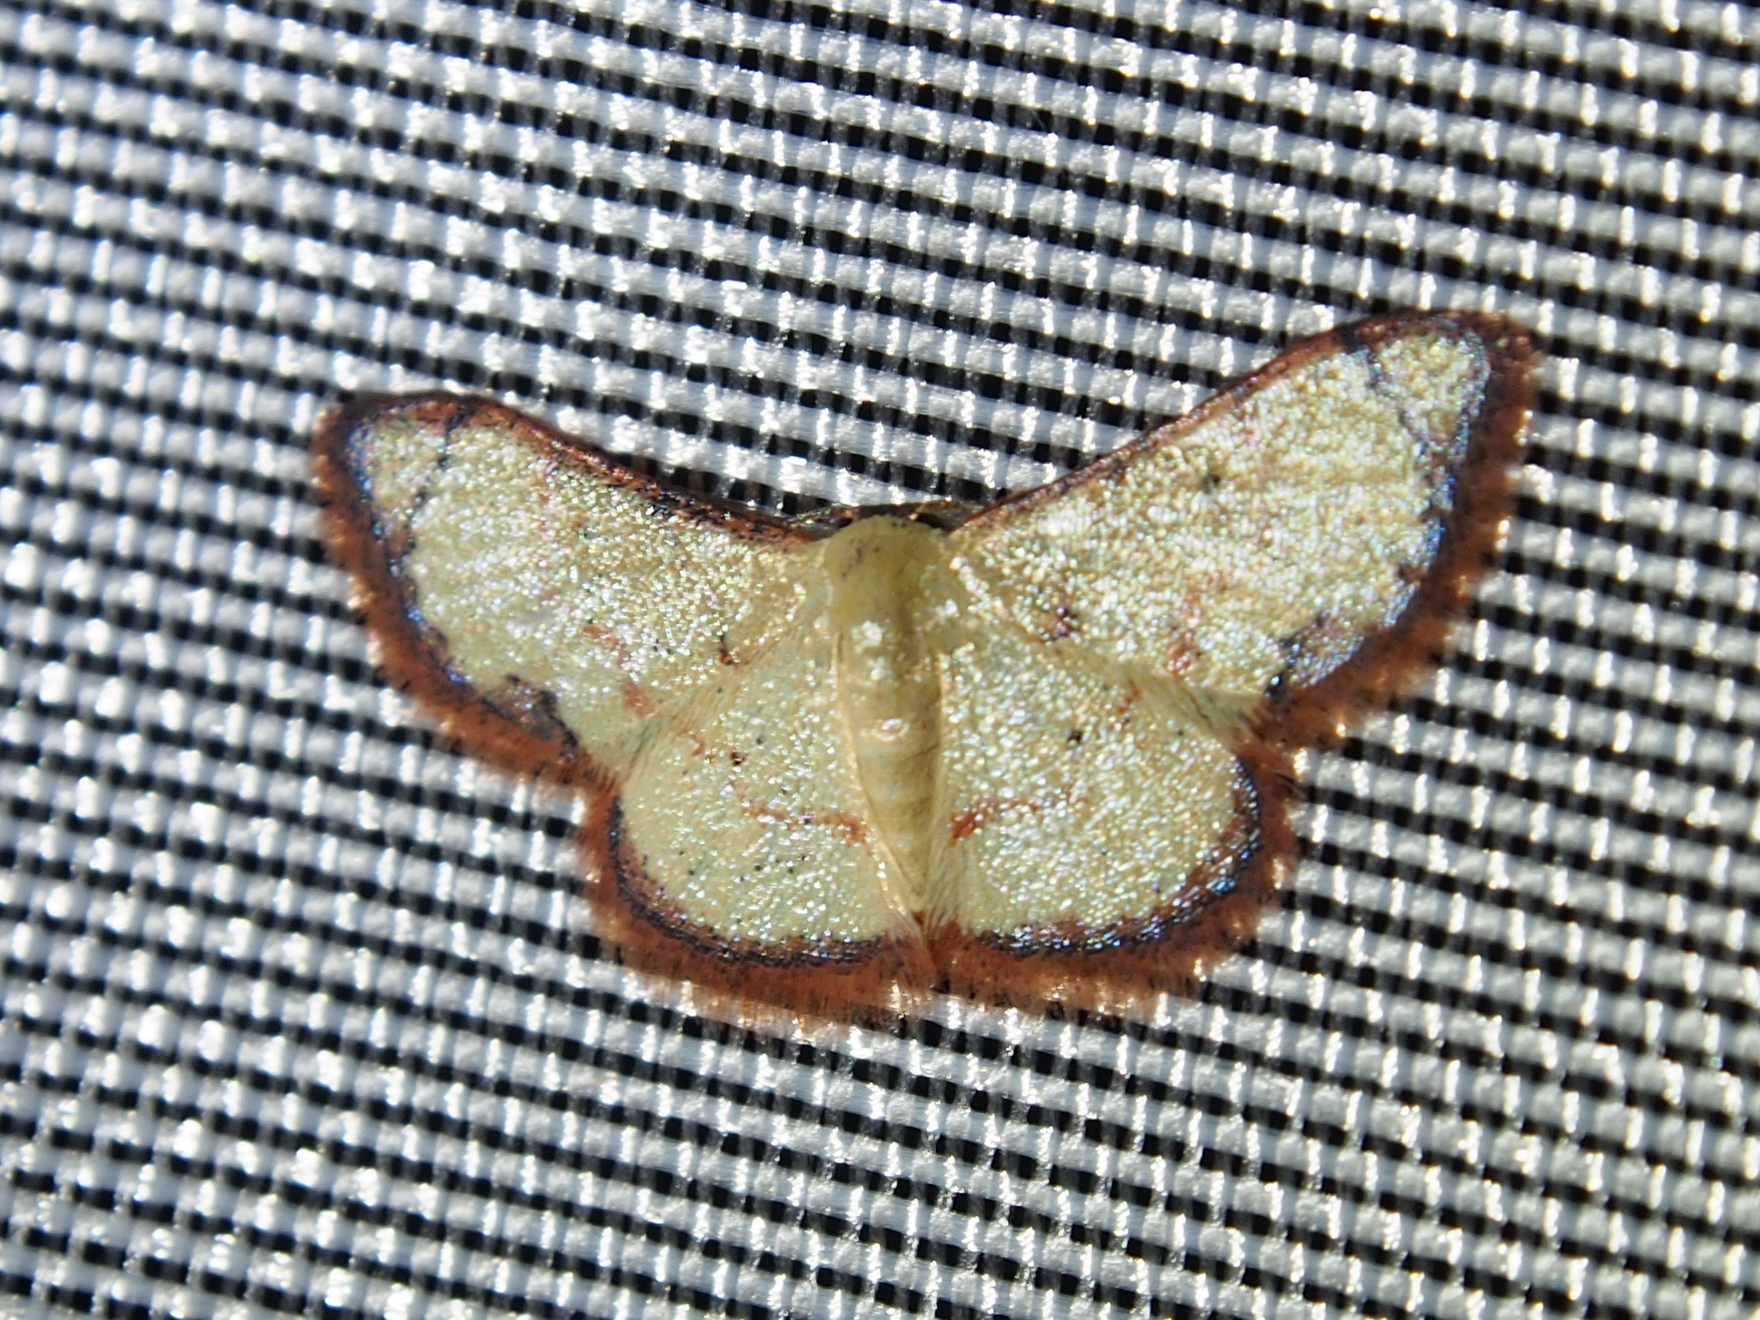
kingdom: Animalia
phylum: Arthropoda
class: Insecta
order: Lepidoptera
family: Geometridae
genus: Lobocleta
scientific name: Lobocleta malvina
